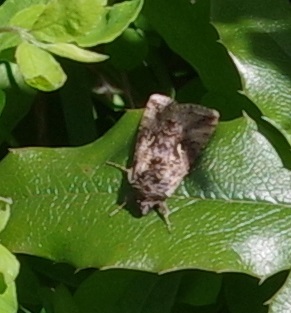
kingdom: Animalia
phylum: Arthropoda
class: Insecta
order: Lepidoptera
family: Noctuidae
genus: Autographa
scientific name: Autographa gamma
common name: Silver y
